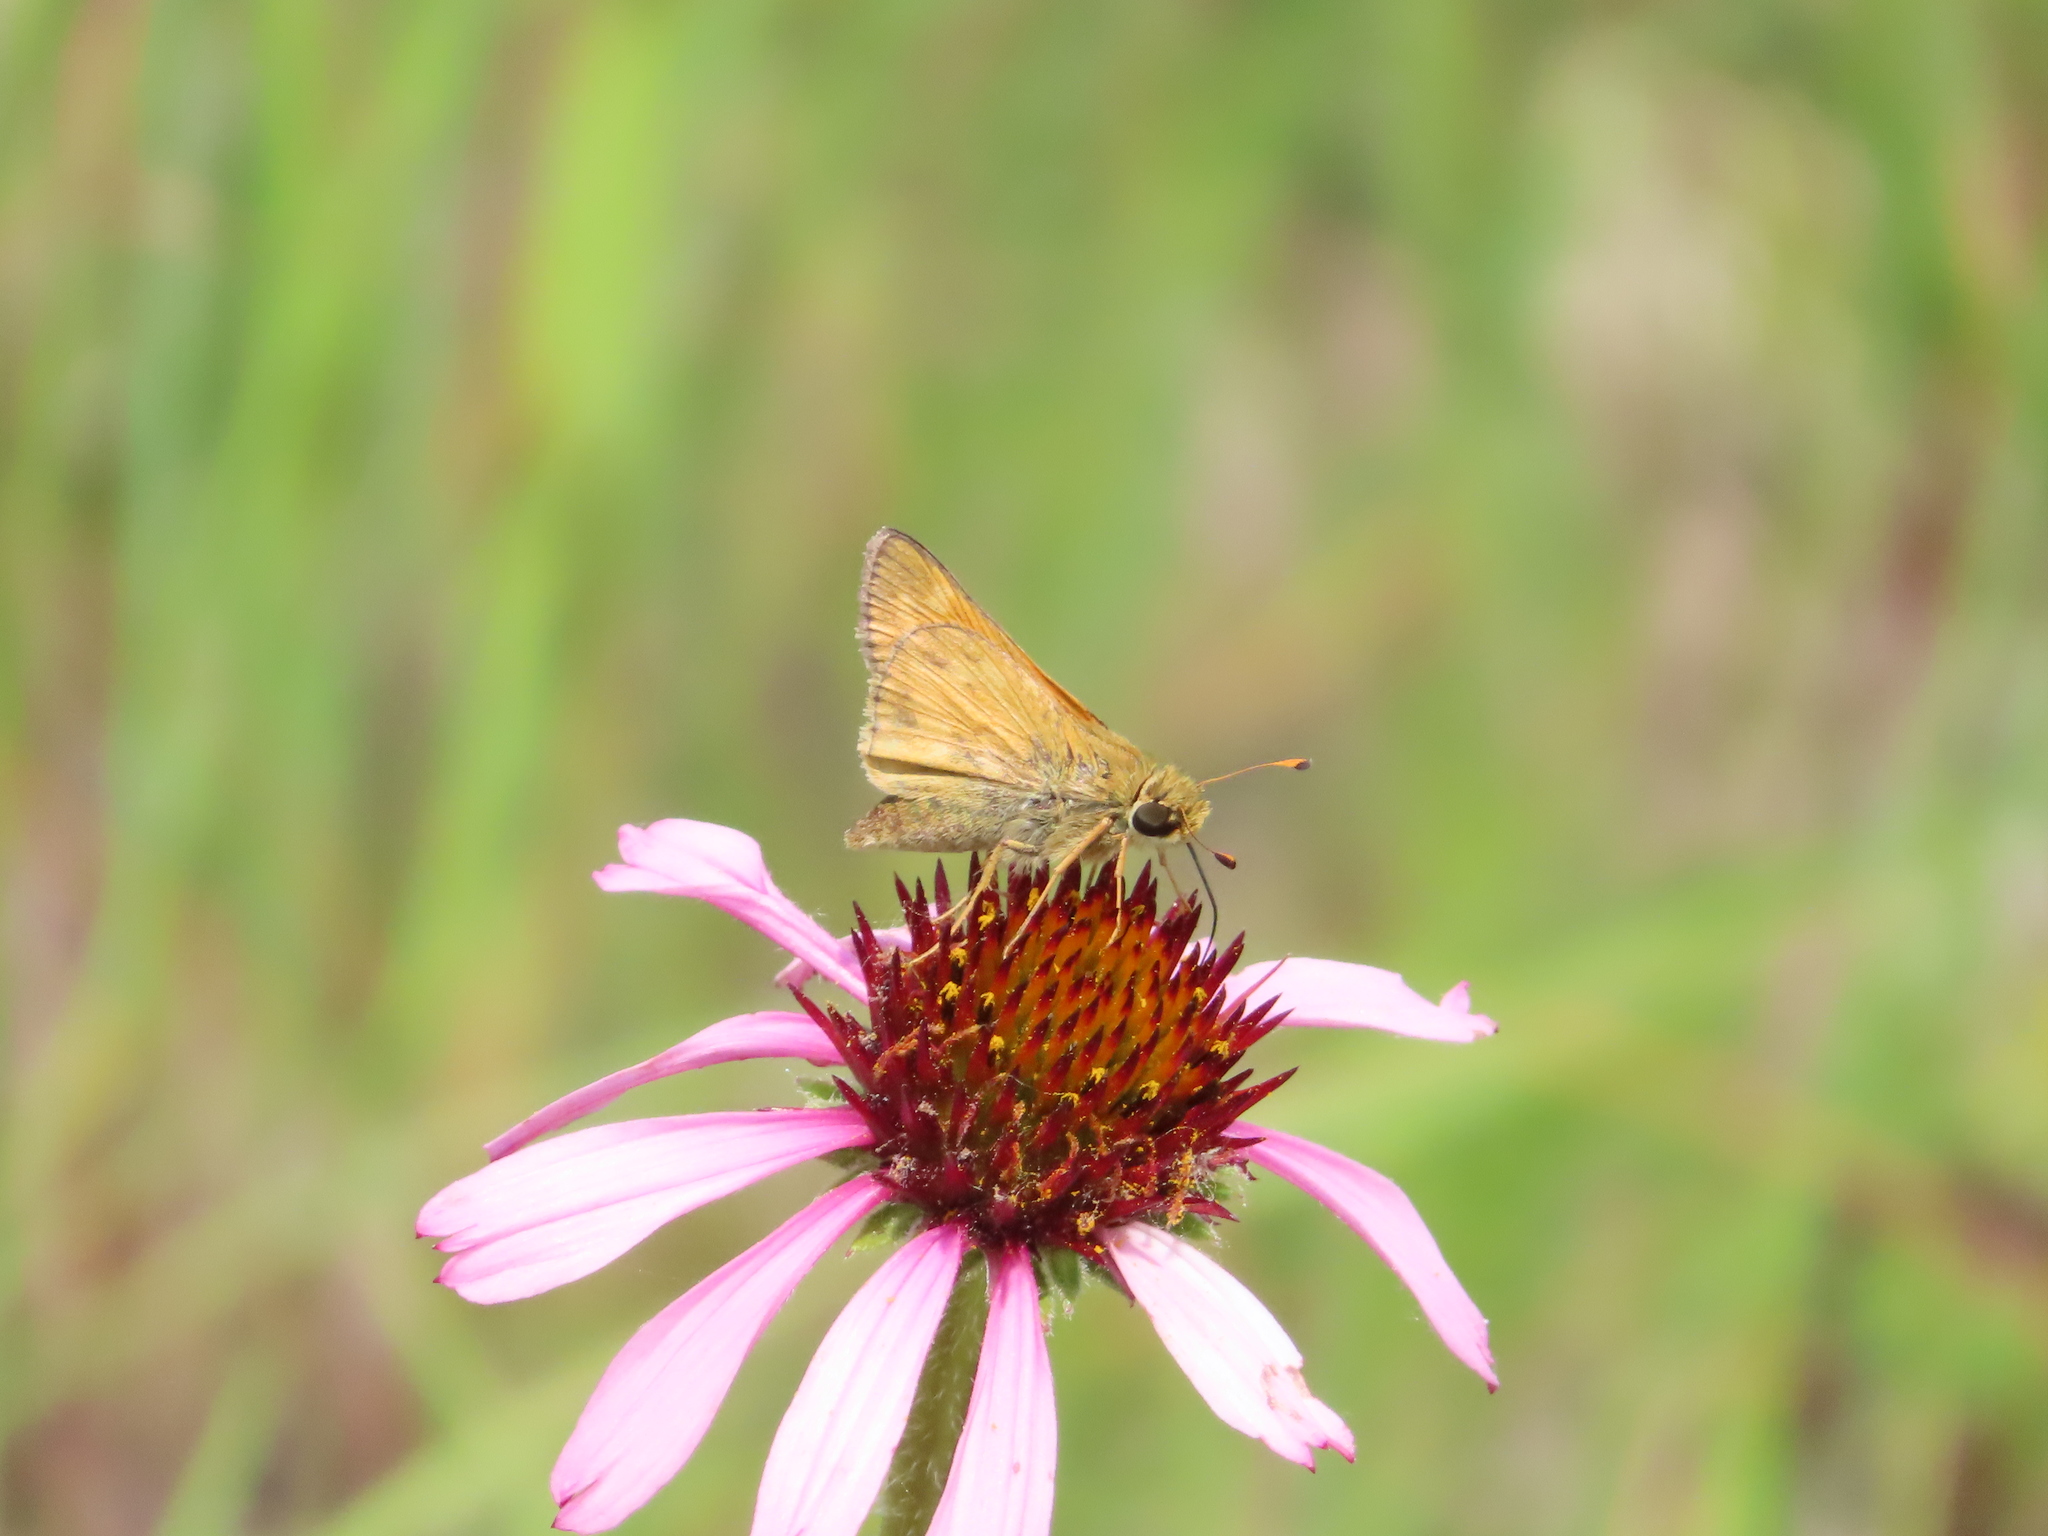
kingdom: Animalia
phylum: Arthropoda
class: Insecta
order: Lepidoptera
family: Hesperiidae
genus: Atalopedes
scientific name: Atalopedes
